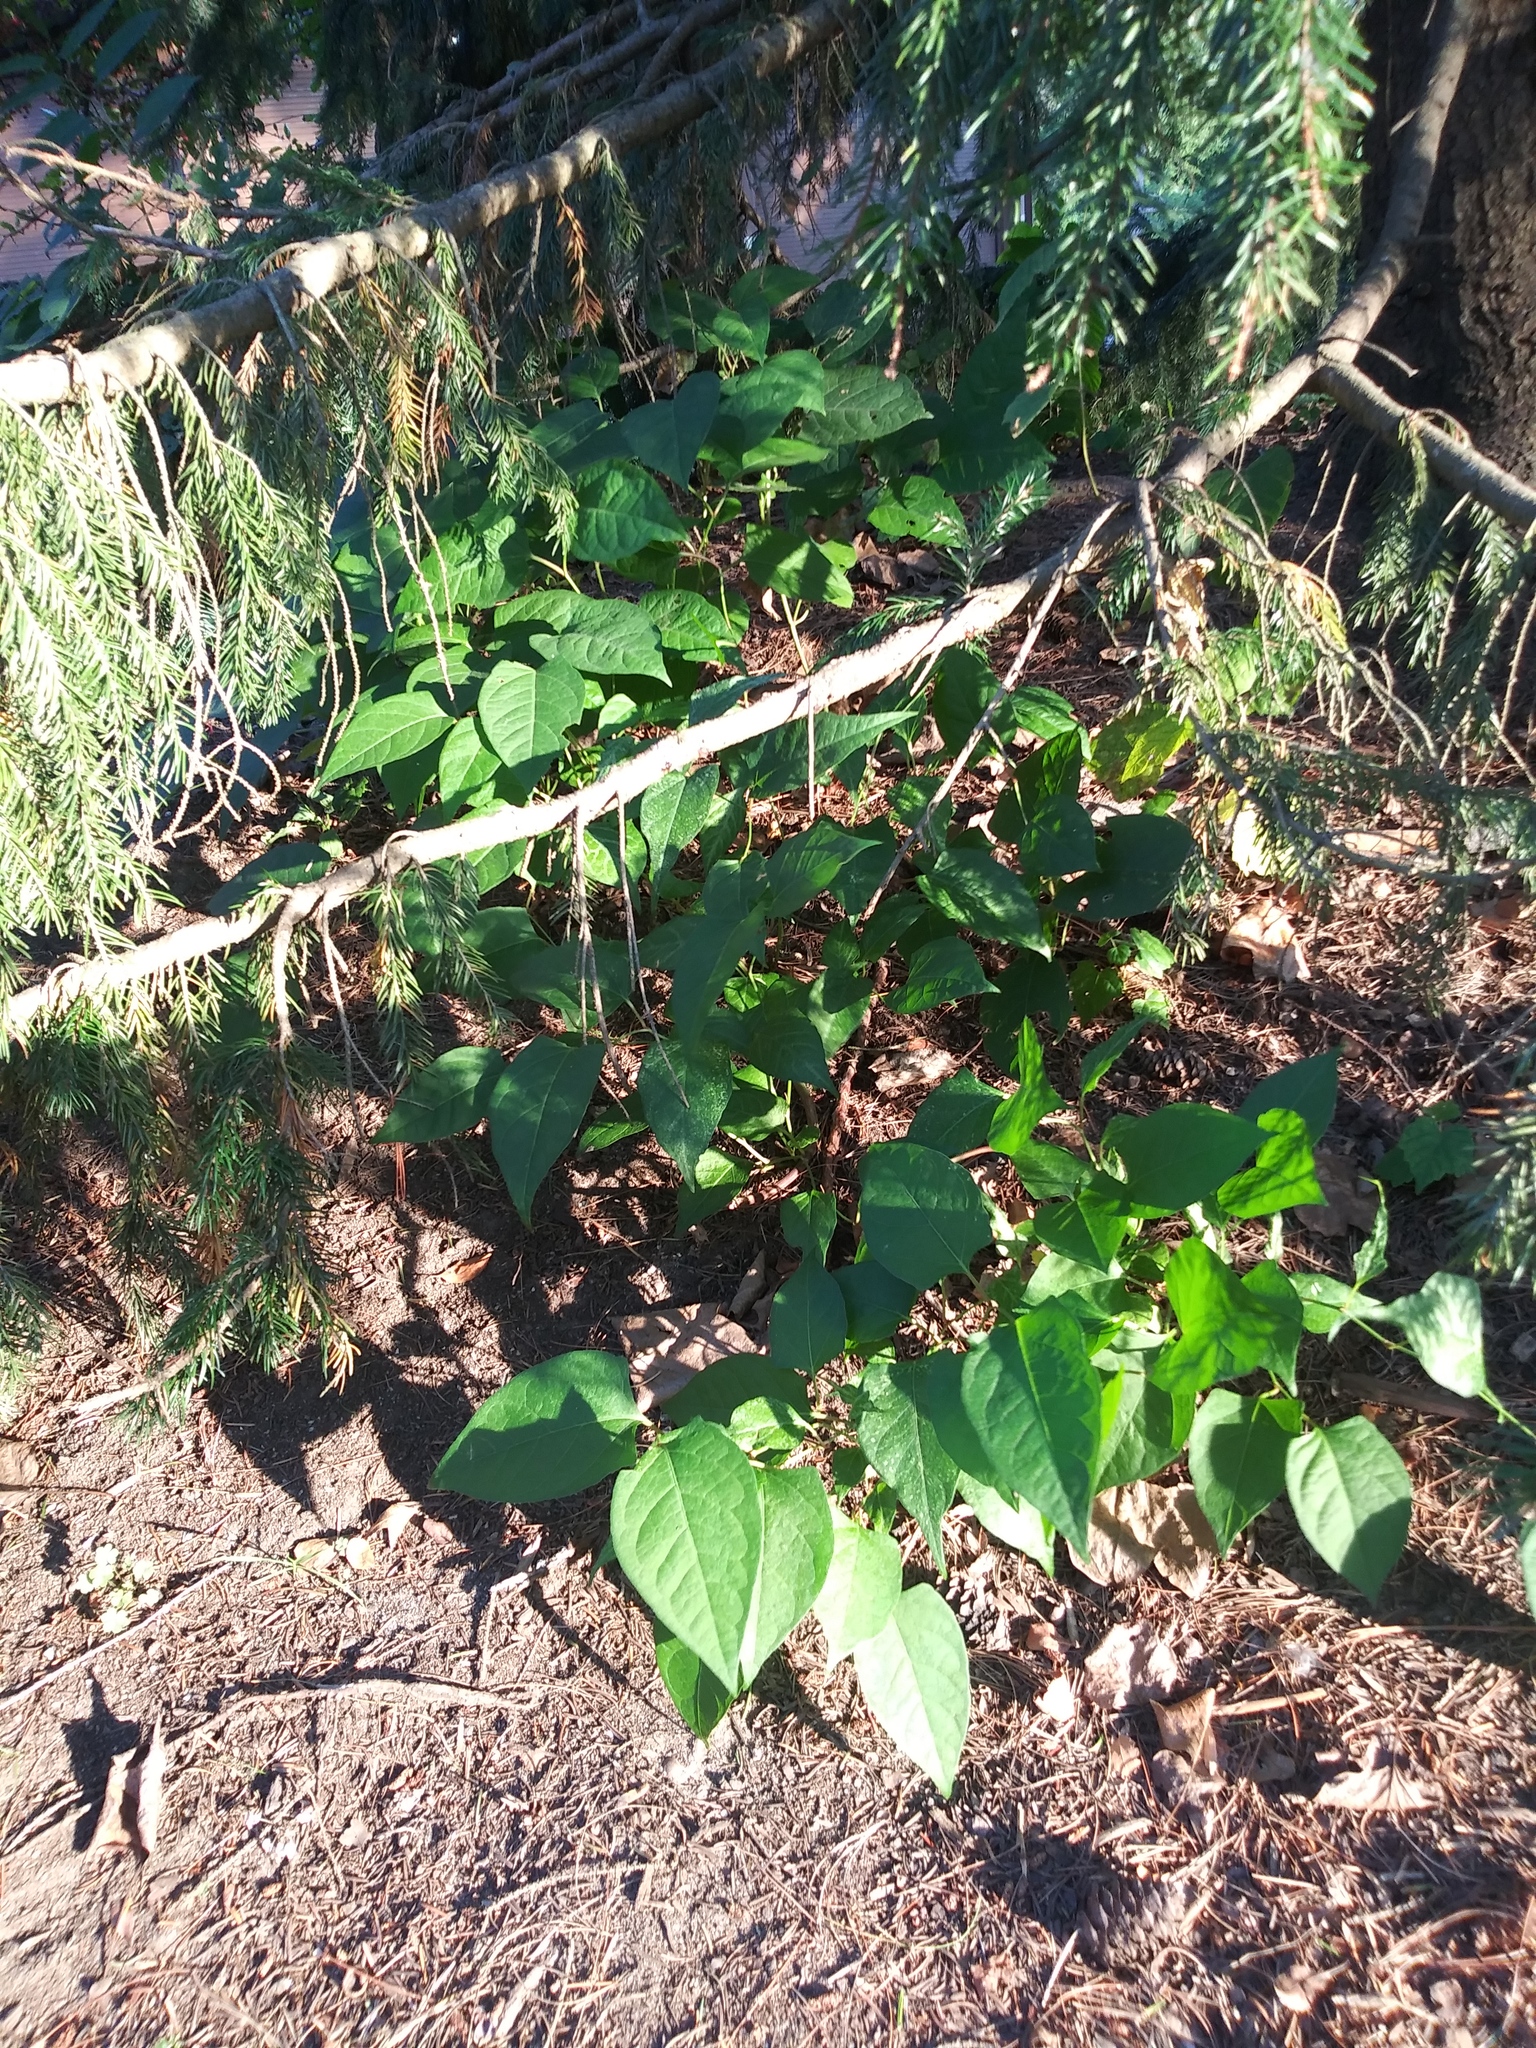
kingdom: Plantae
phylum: Tracheophyta
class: Magnoliopsida
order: Caryophyllales
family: Polygonaceae
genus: Reynoutria
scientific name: Reynoutria japonica
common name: Japanese knotweed
